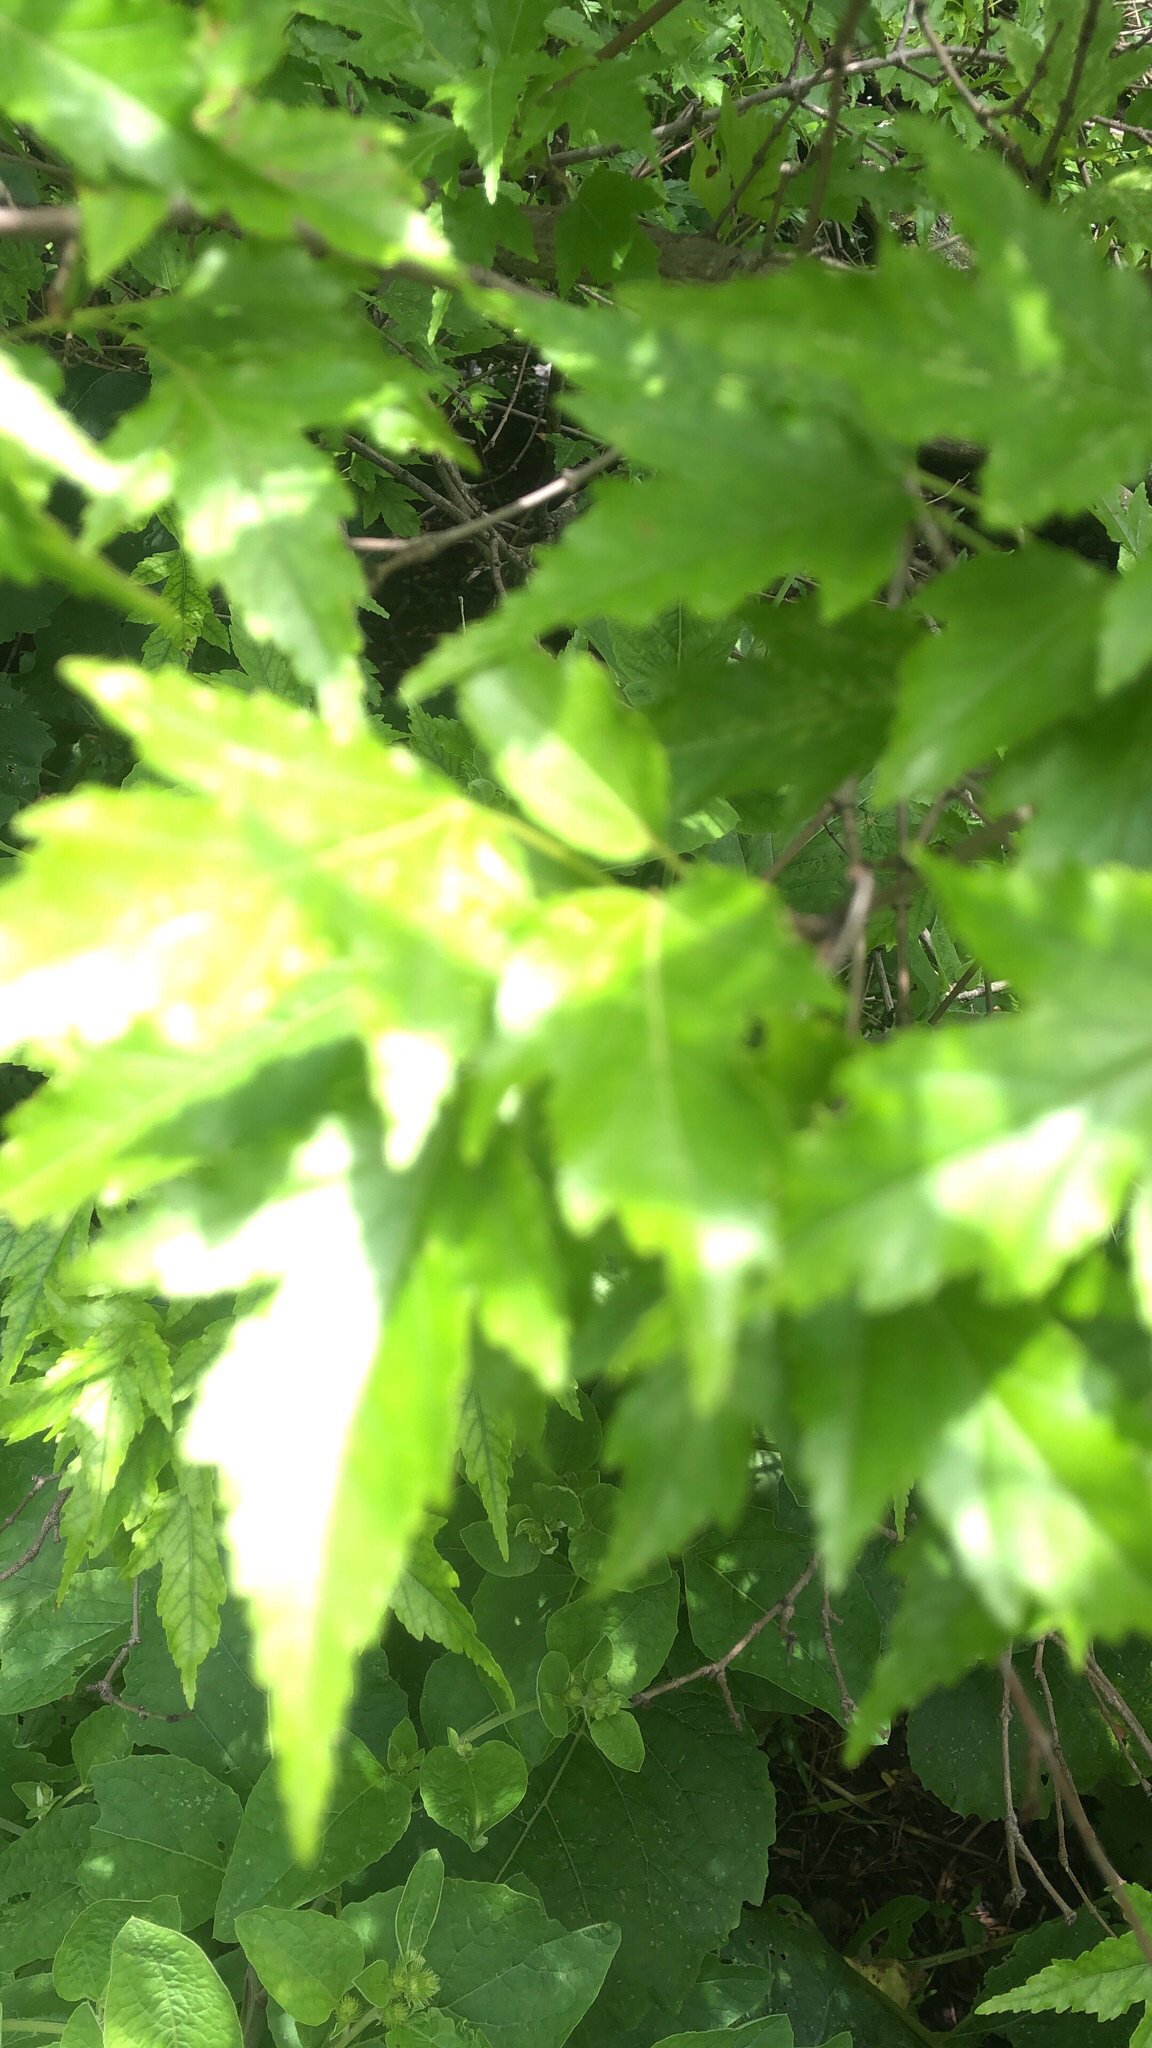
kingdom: Plantae
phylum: Tracheophyta
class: Magnoliopsida
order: Sapindales
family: Sapindaceae
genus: Acer
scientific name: Acer tataricum
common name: Tartar maple
